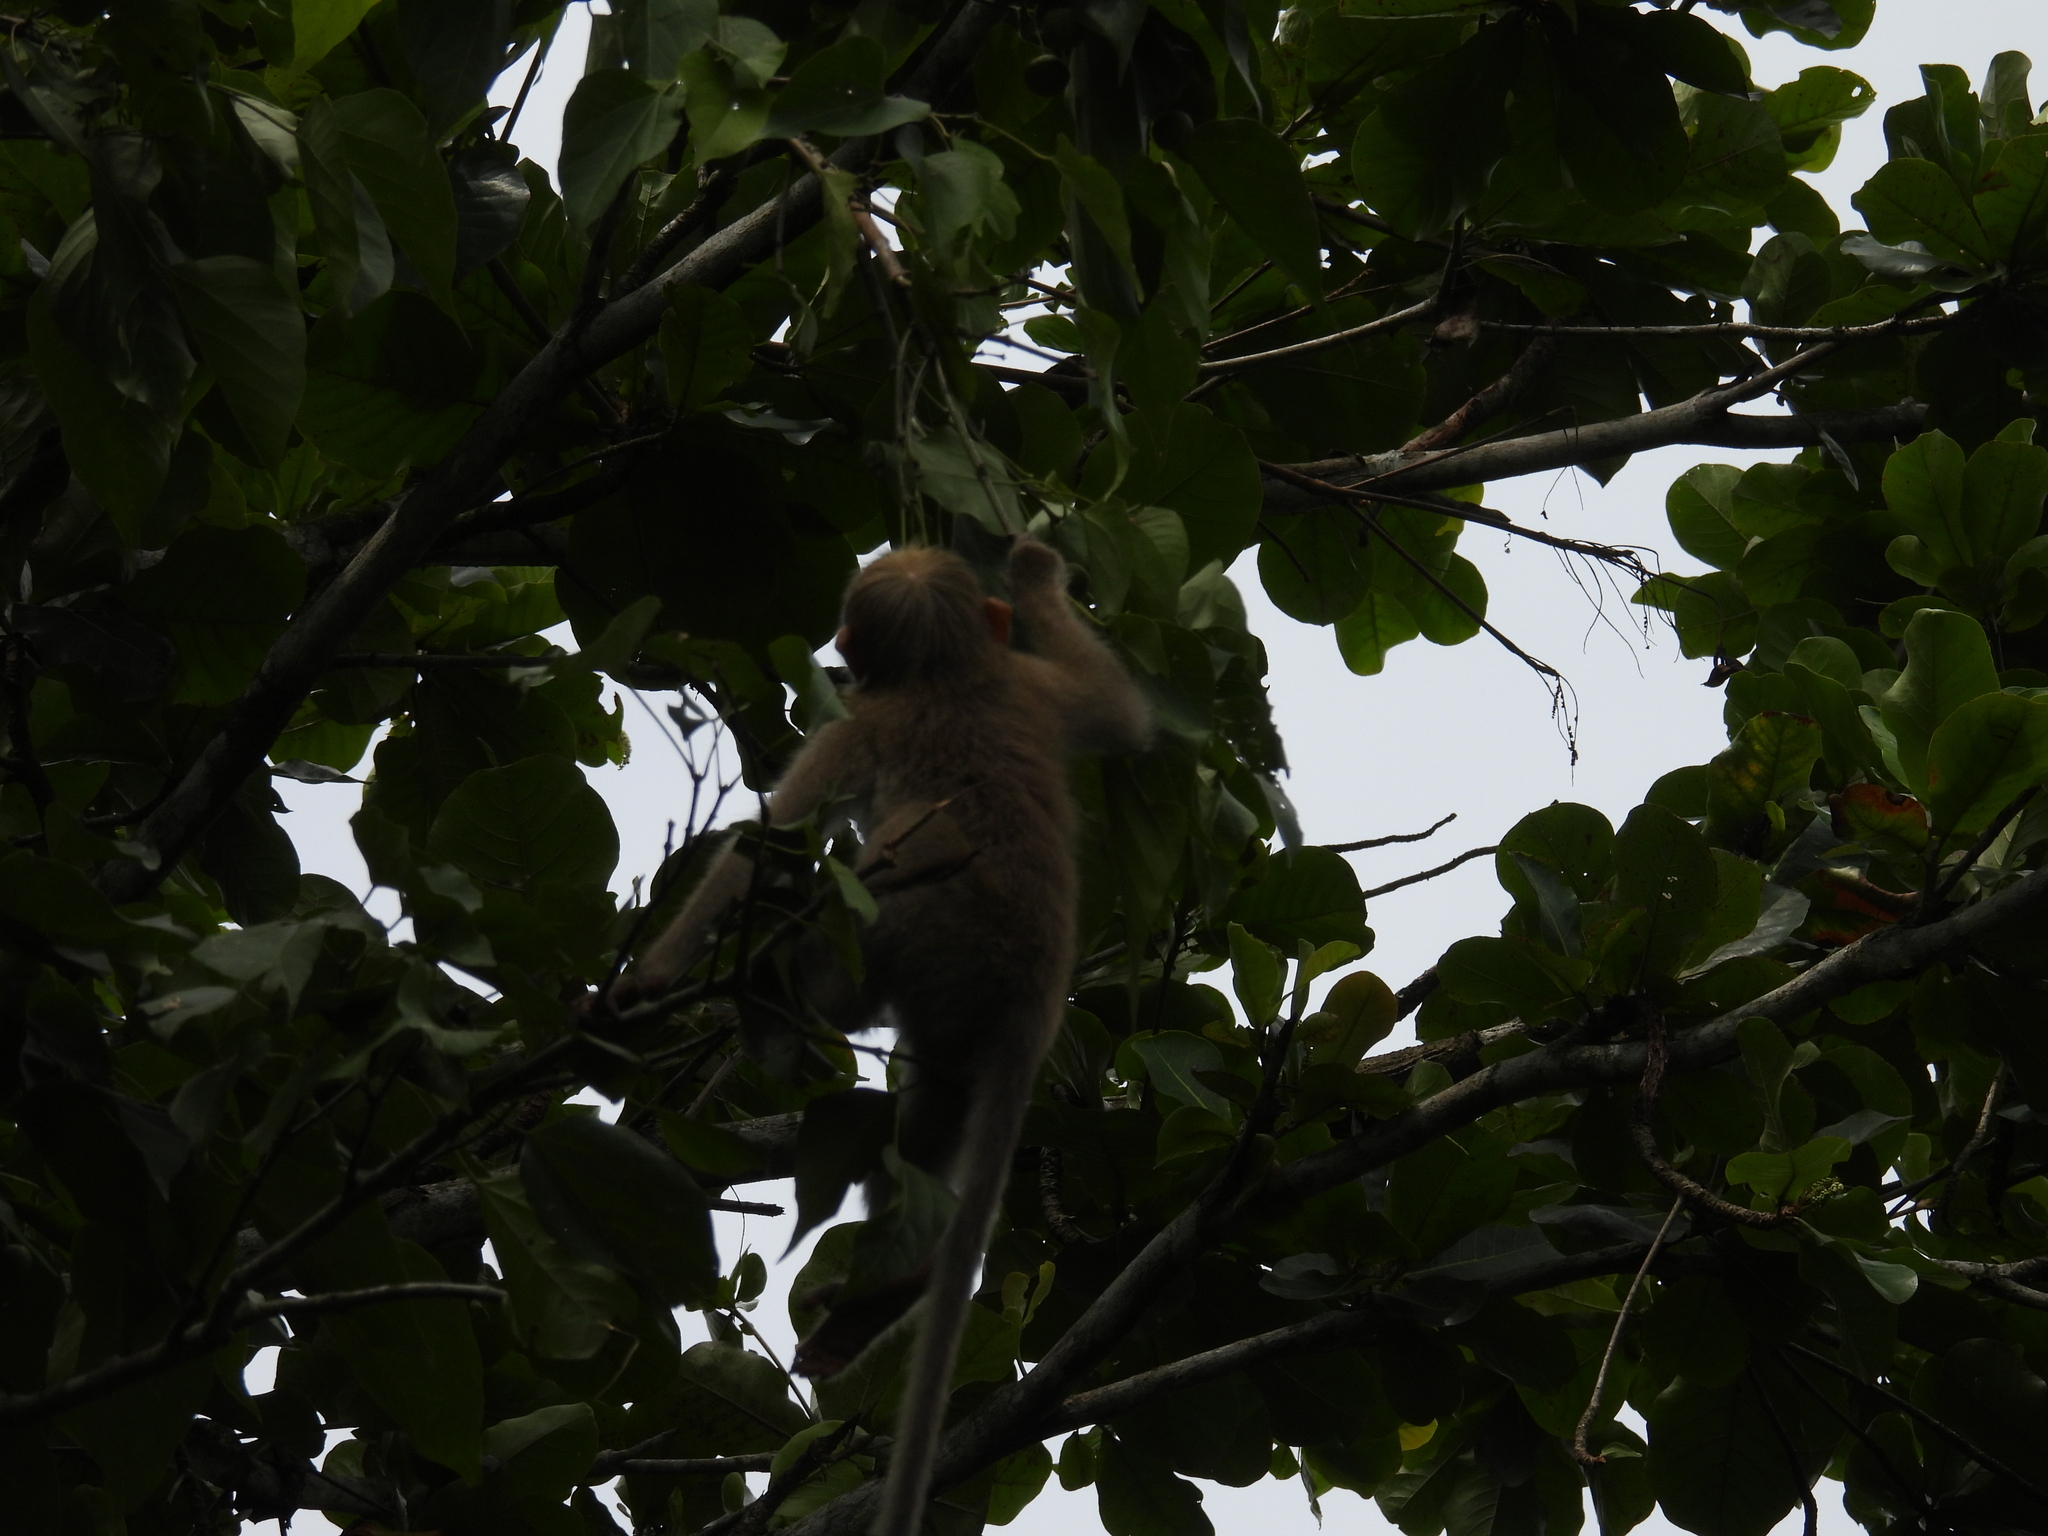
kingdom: Animalia
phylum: Chordata
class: Mammalia
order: Primates
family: Cercopithecidae
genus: Macaca
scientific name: Macaca radiata
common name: Bonnet macaque
